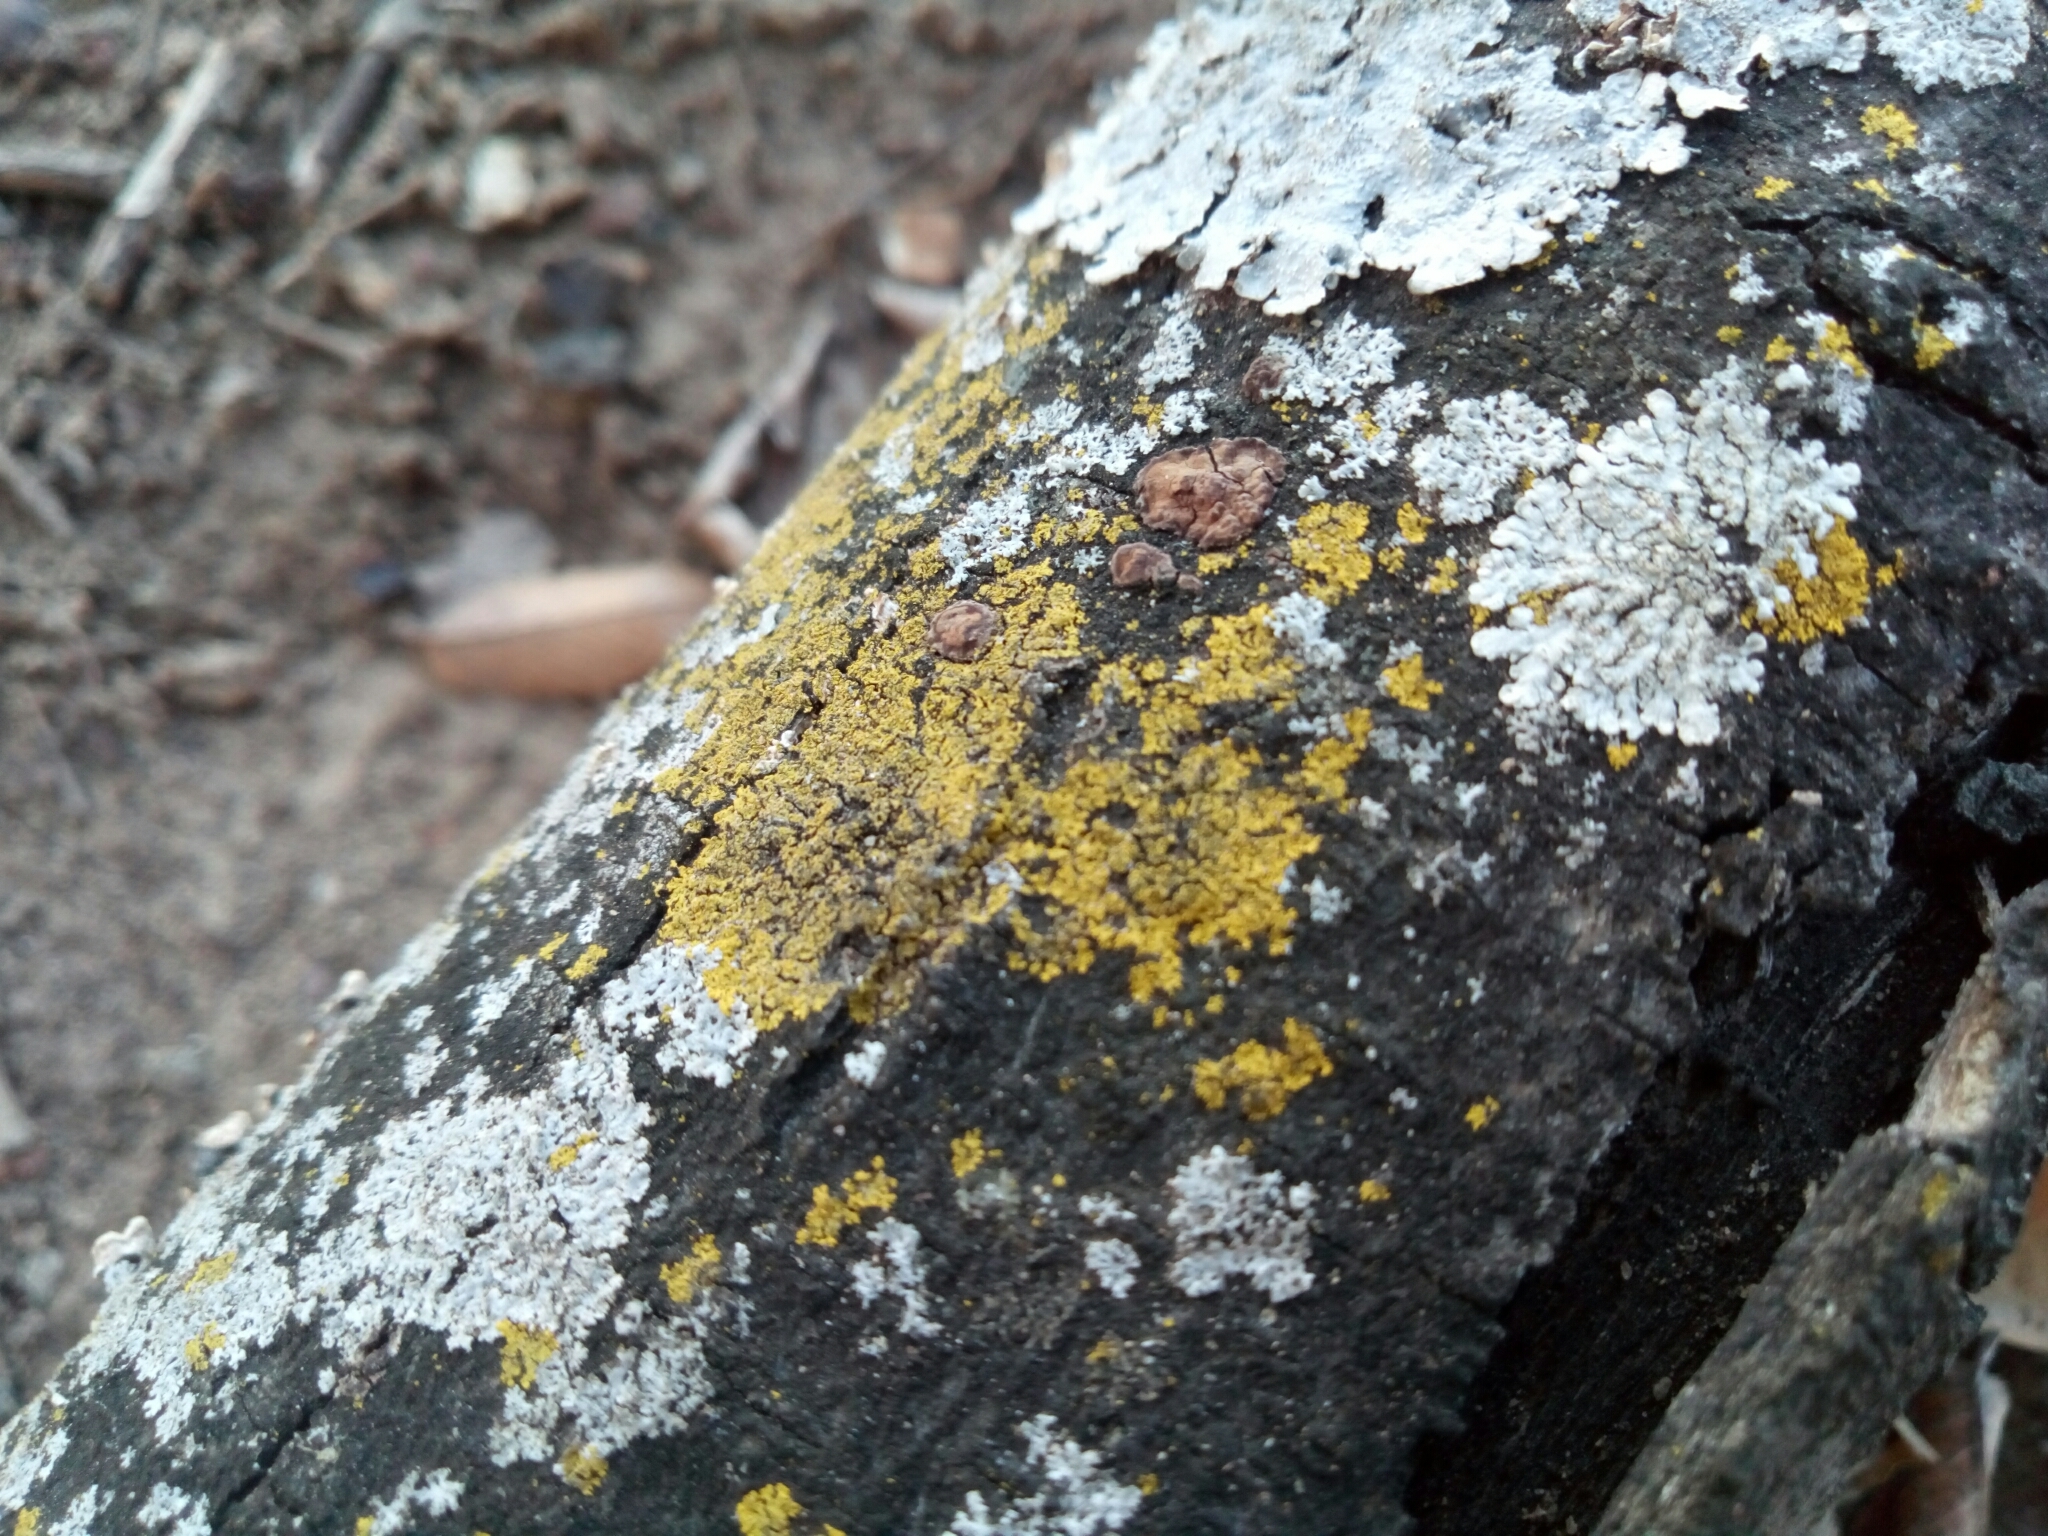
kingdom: Fungi
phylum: Ascomycota
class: Candelariomycetes
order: Candelariales
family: Candelariaceae
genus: Candelaria
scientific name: Candelaria concolor
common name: Candleflame lichen
